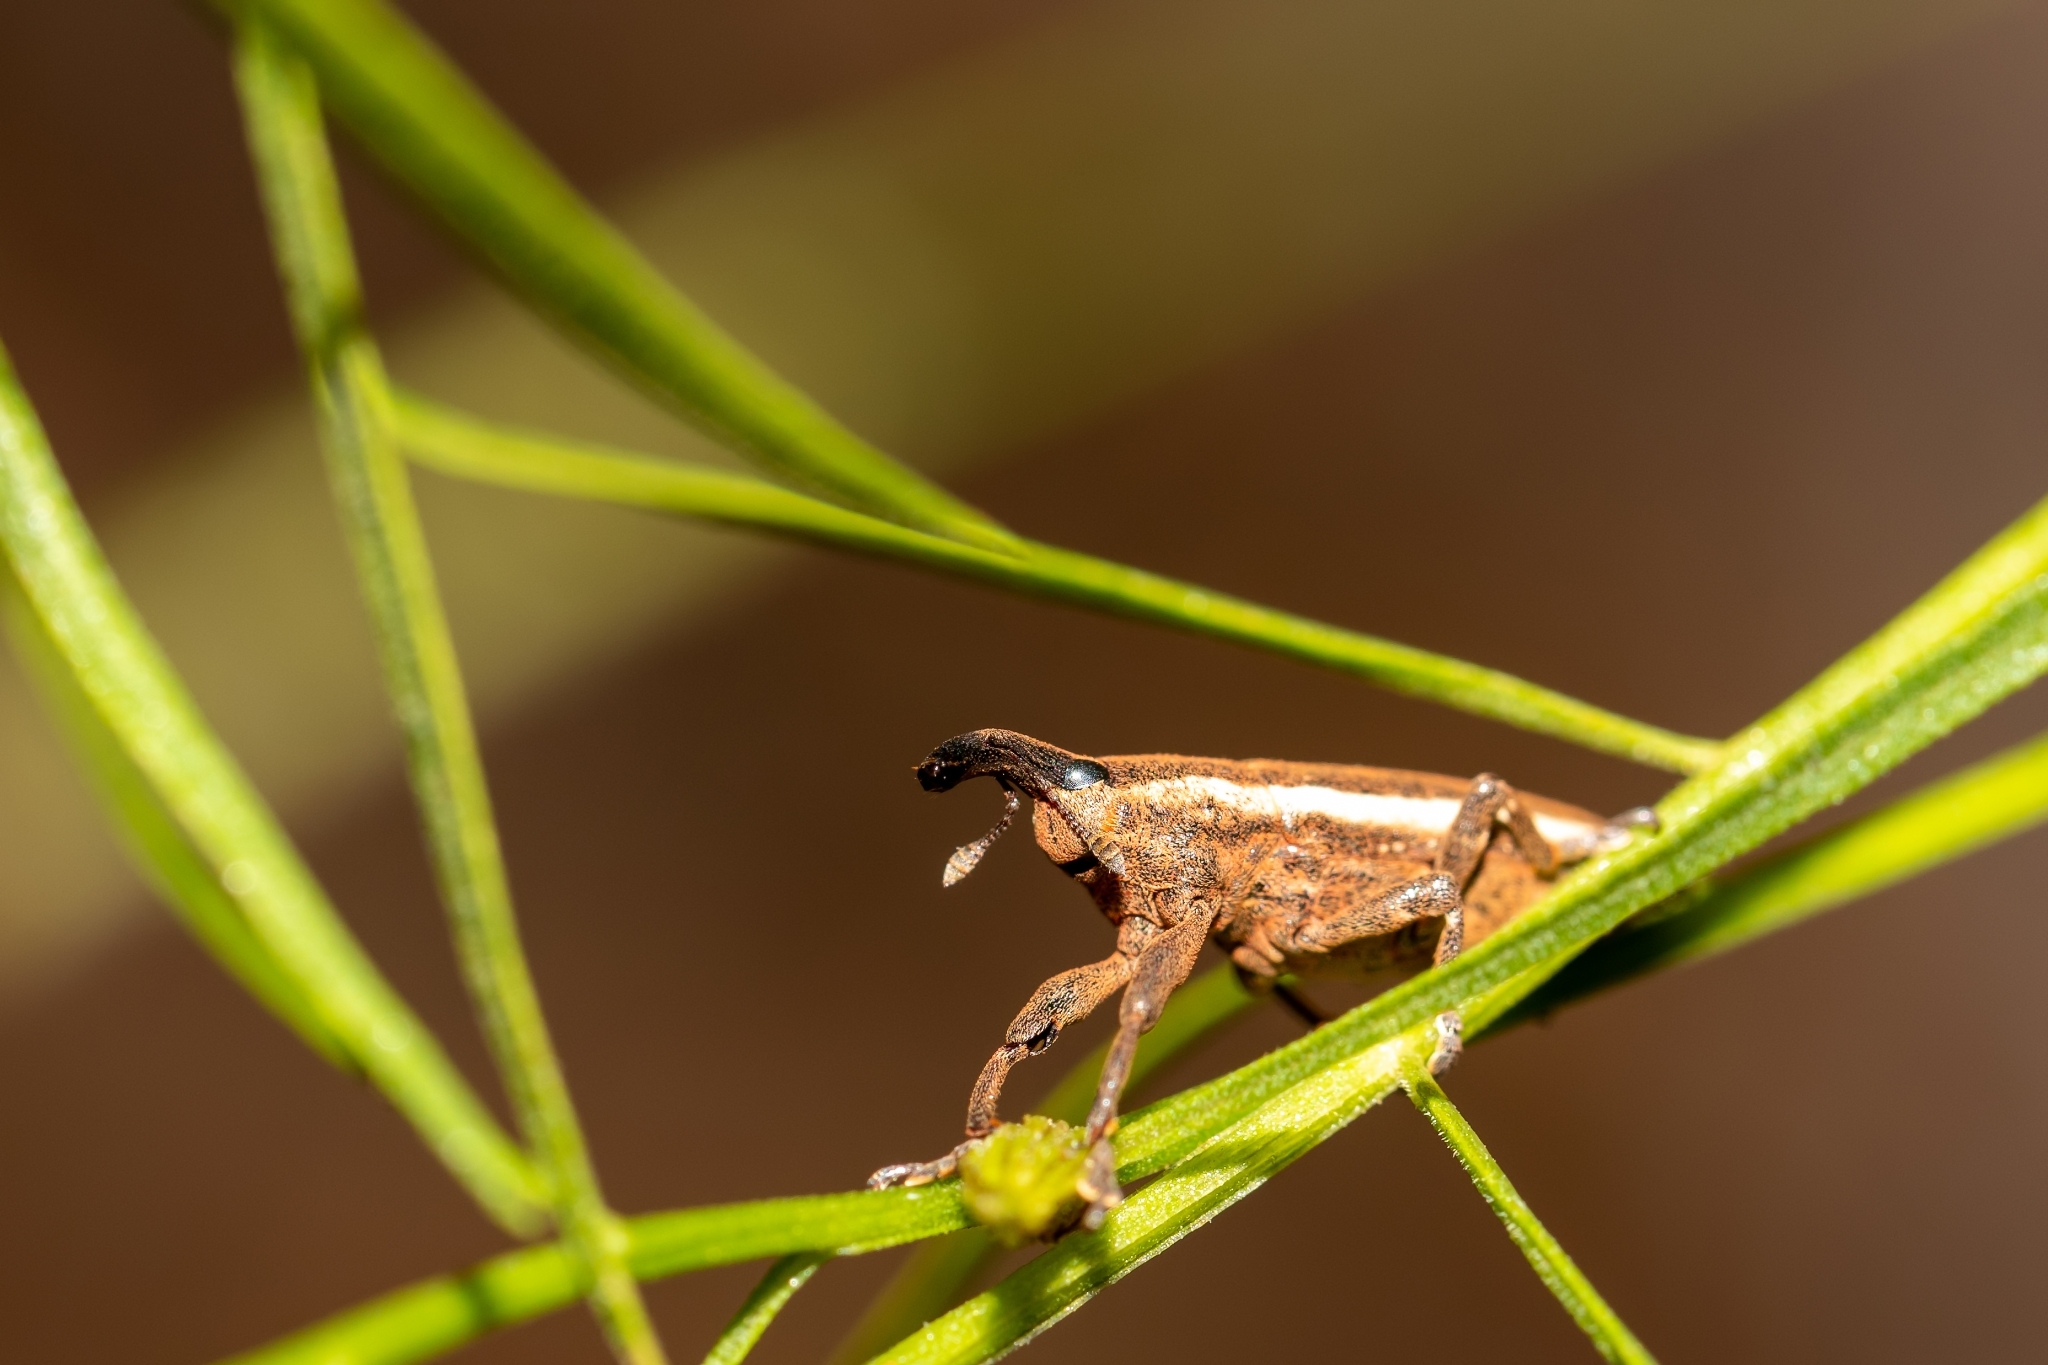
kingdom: Animalia
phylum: Arthropoda
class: Insecta
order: Coleoptera
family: Curculionidae
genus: Lixus
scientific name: Lixus amplexus
